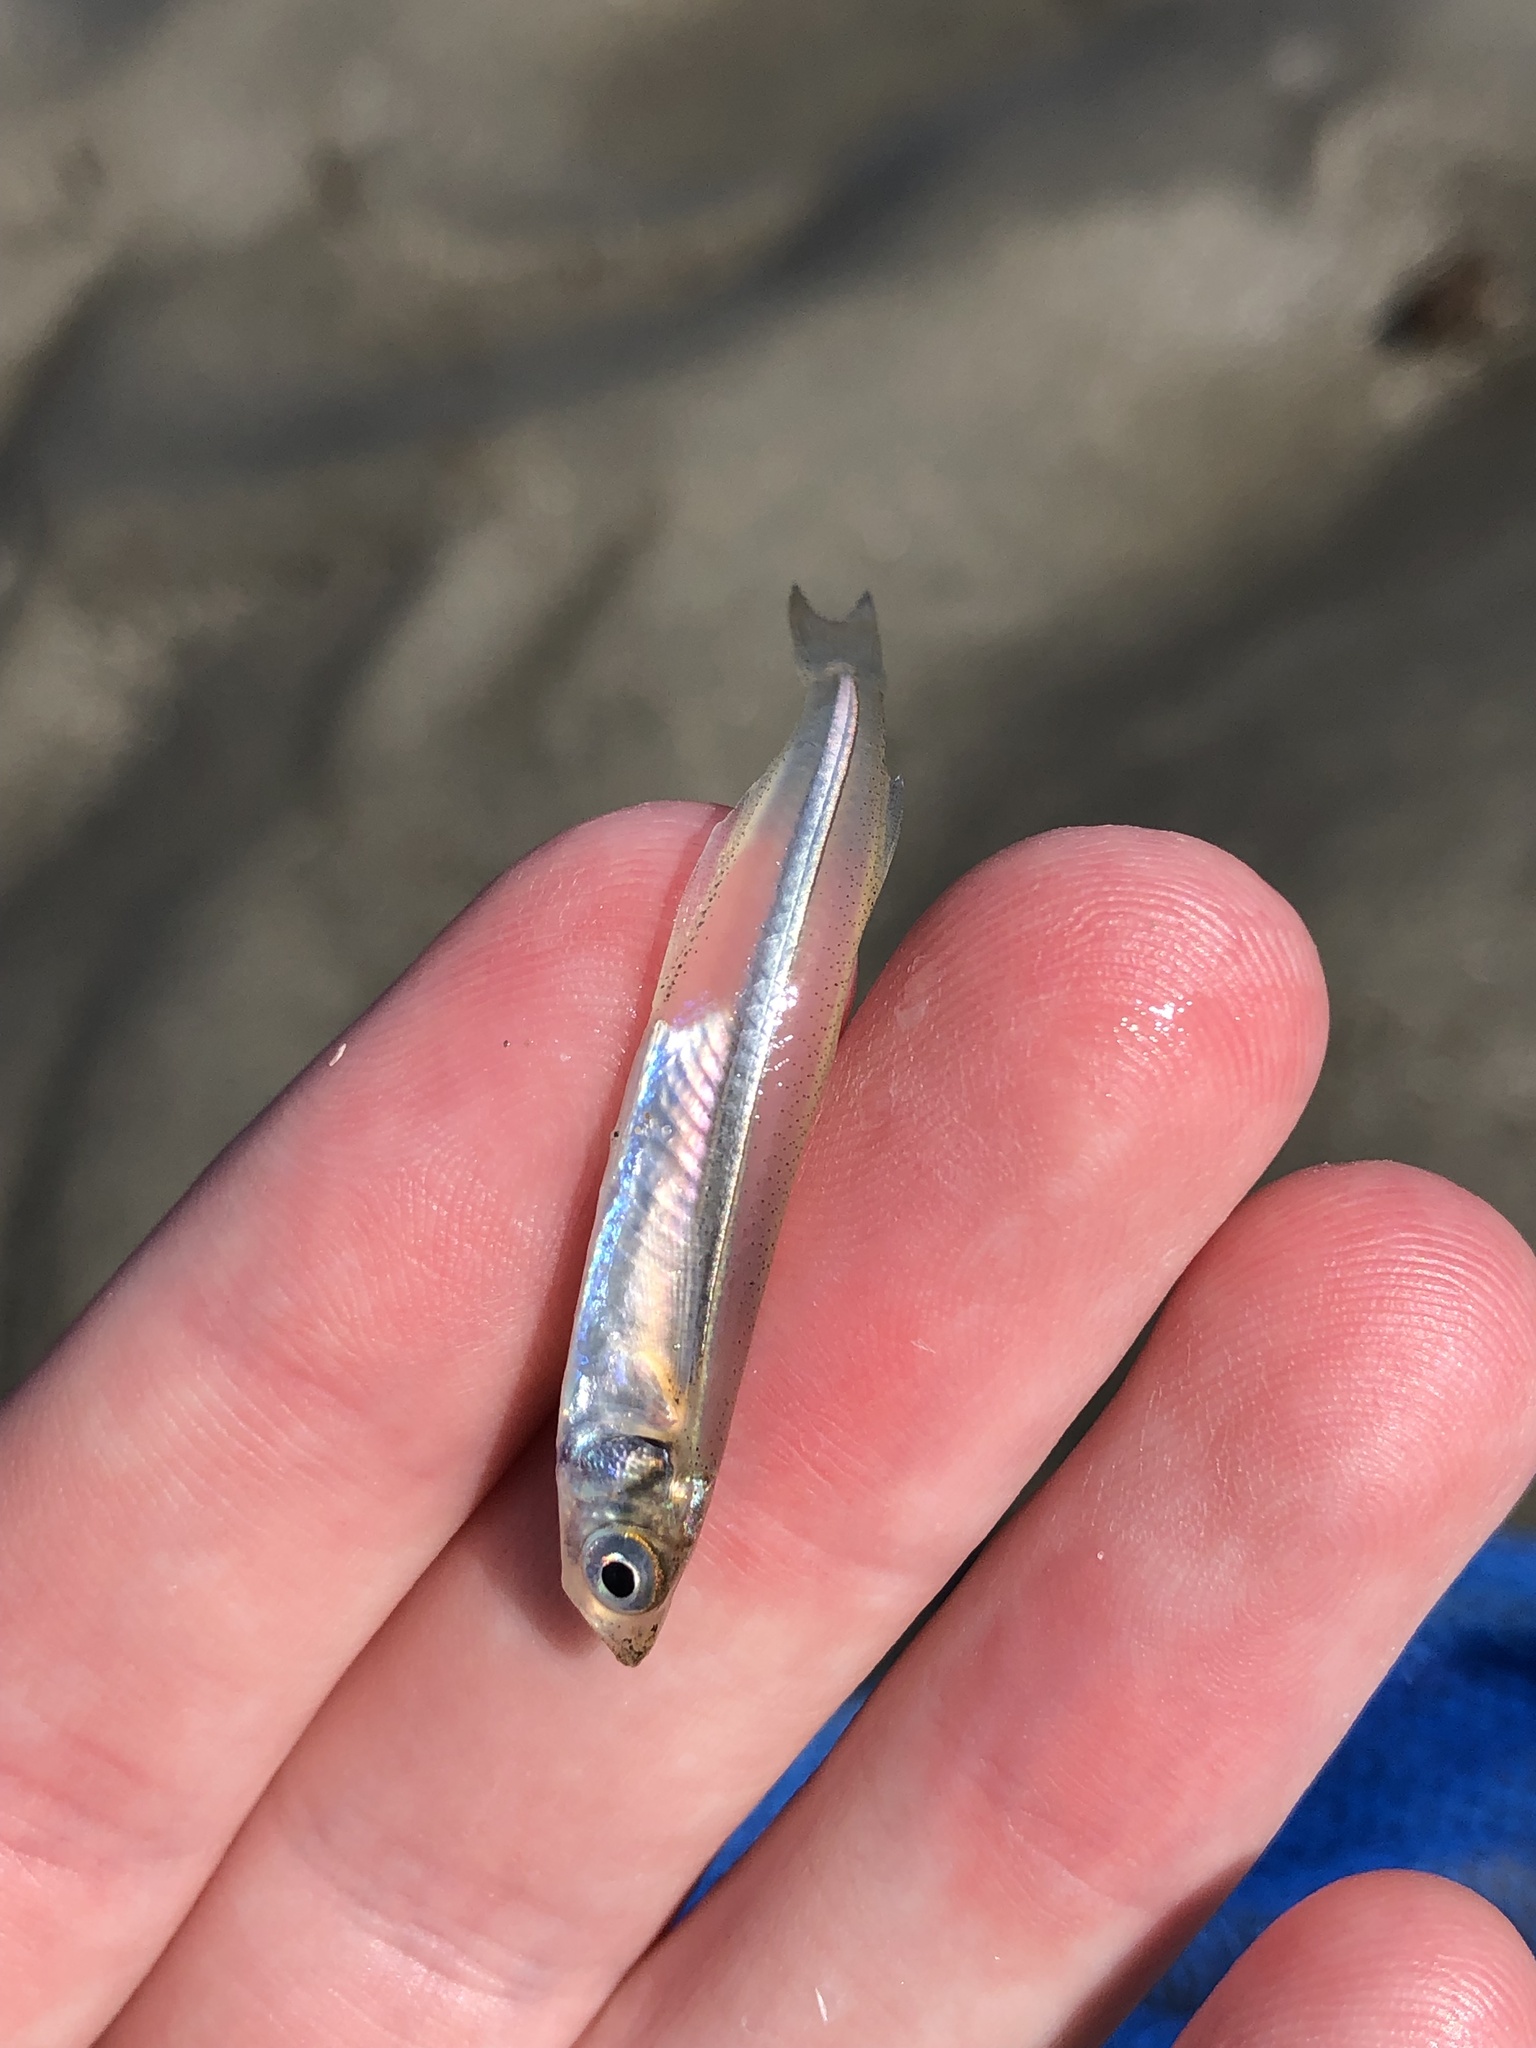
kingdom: Animalia
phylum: Chordata
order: Atheriniformes
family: Atherinopsidae
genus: Menidia
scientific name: Menidia menidia
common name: Atlantic silverside
